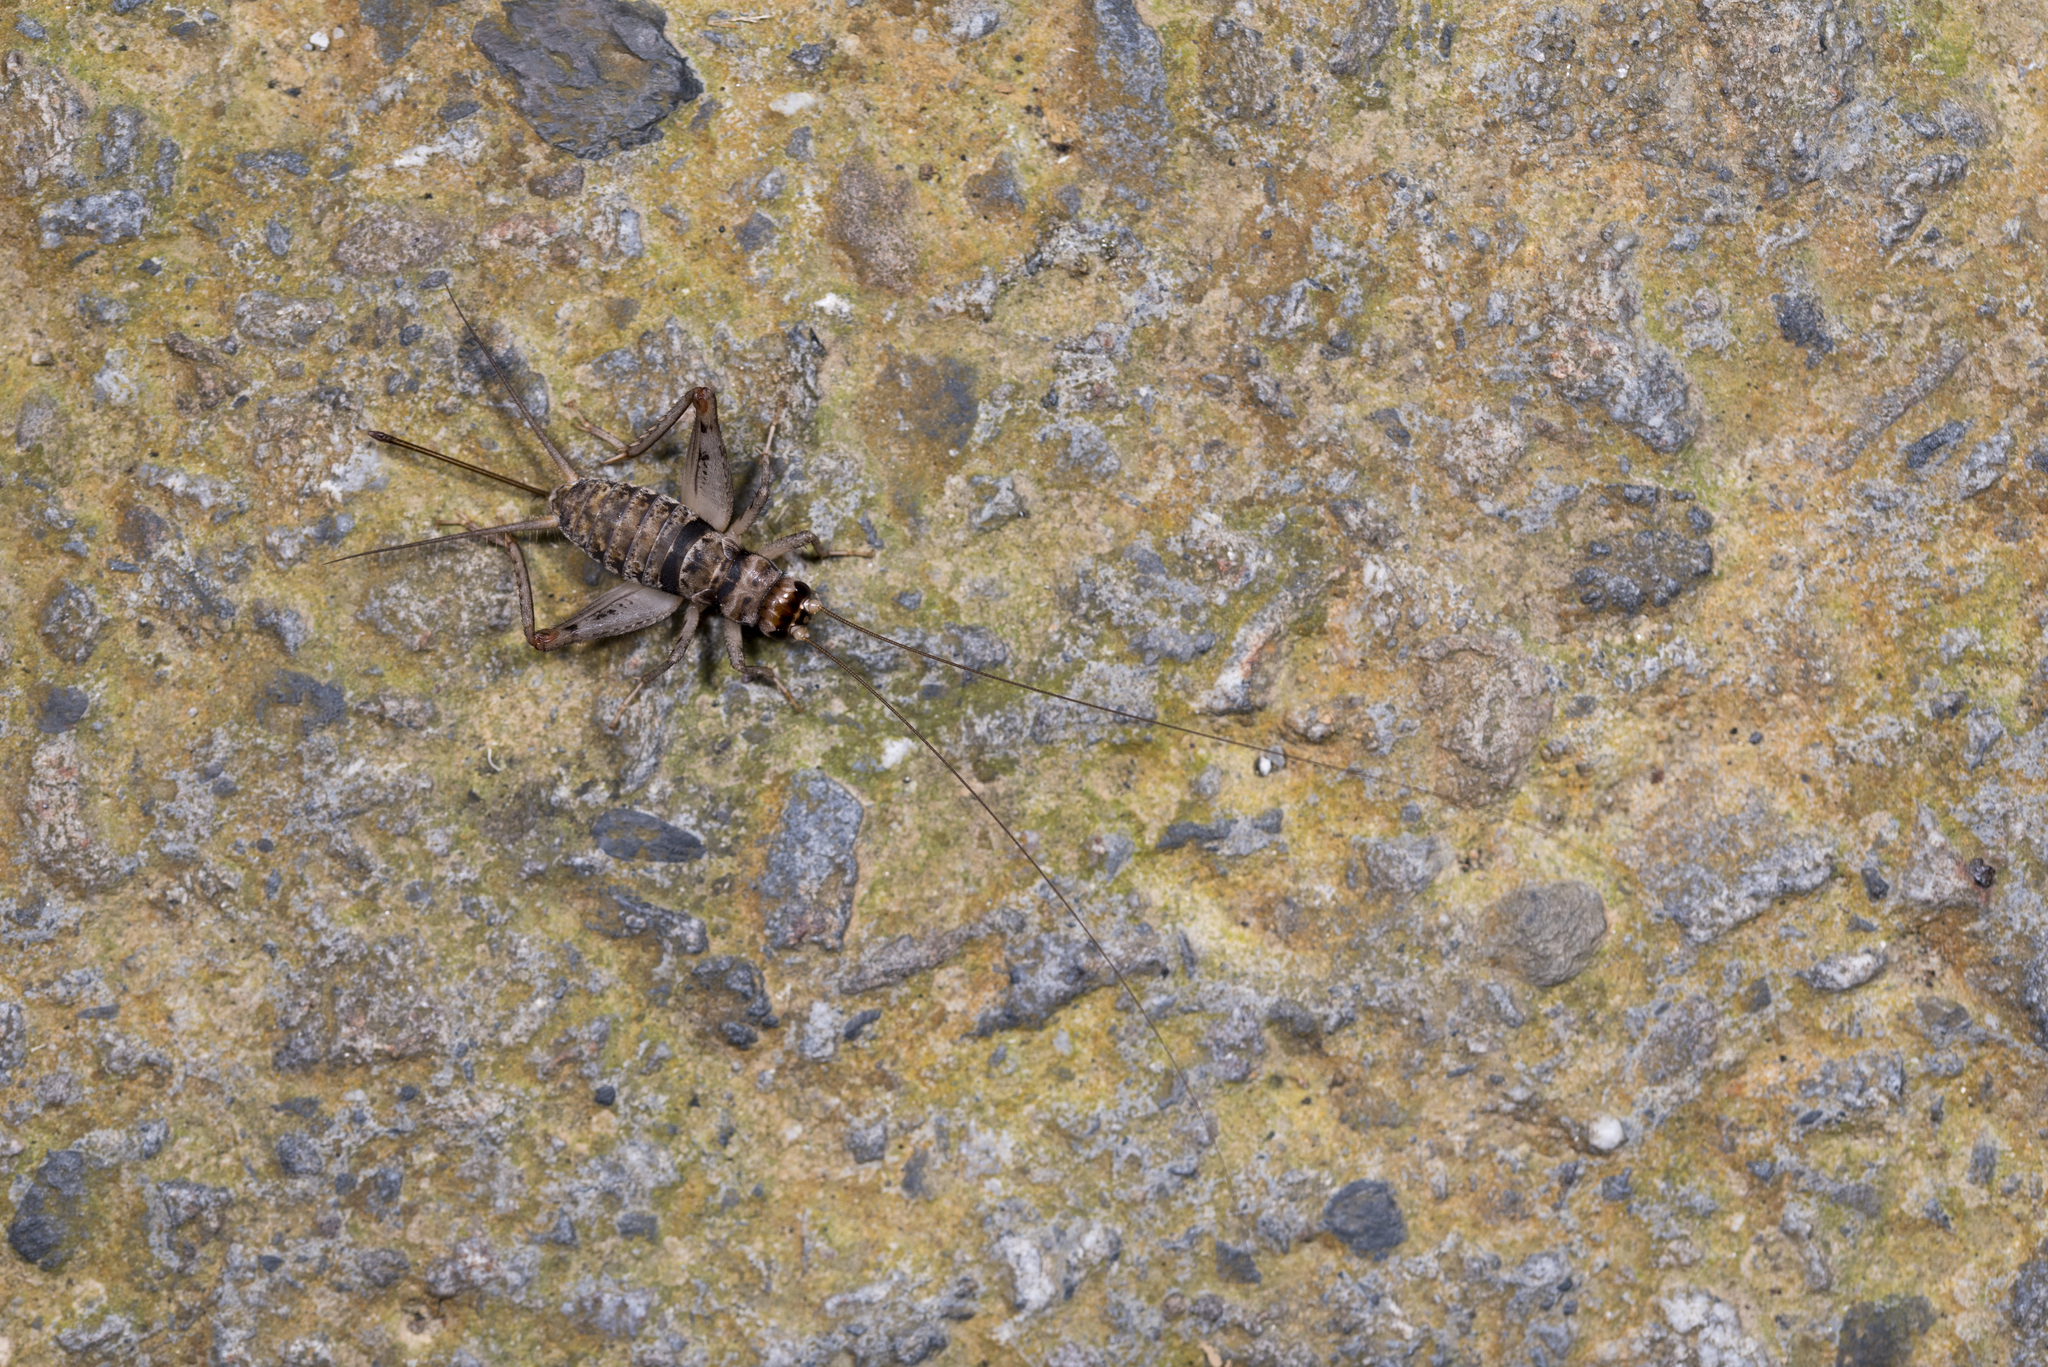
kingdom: Animalia
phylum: Arthropoda
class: Insecta
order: Orthoptera
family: Gryllidae
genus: Gryllodes
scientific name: Gryllodes sigillatus
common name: Tropical house cricket
